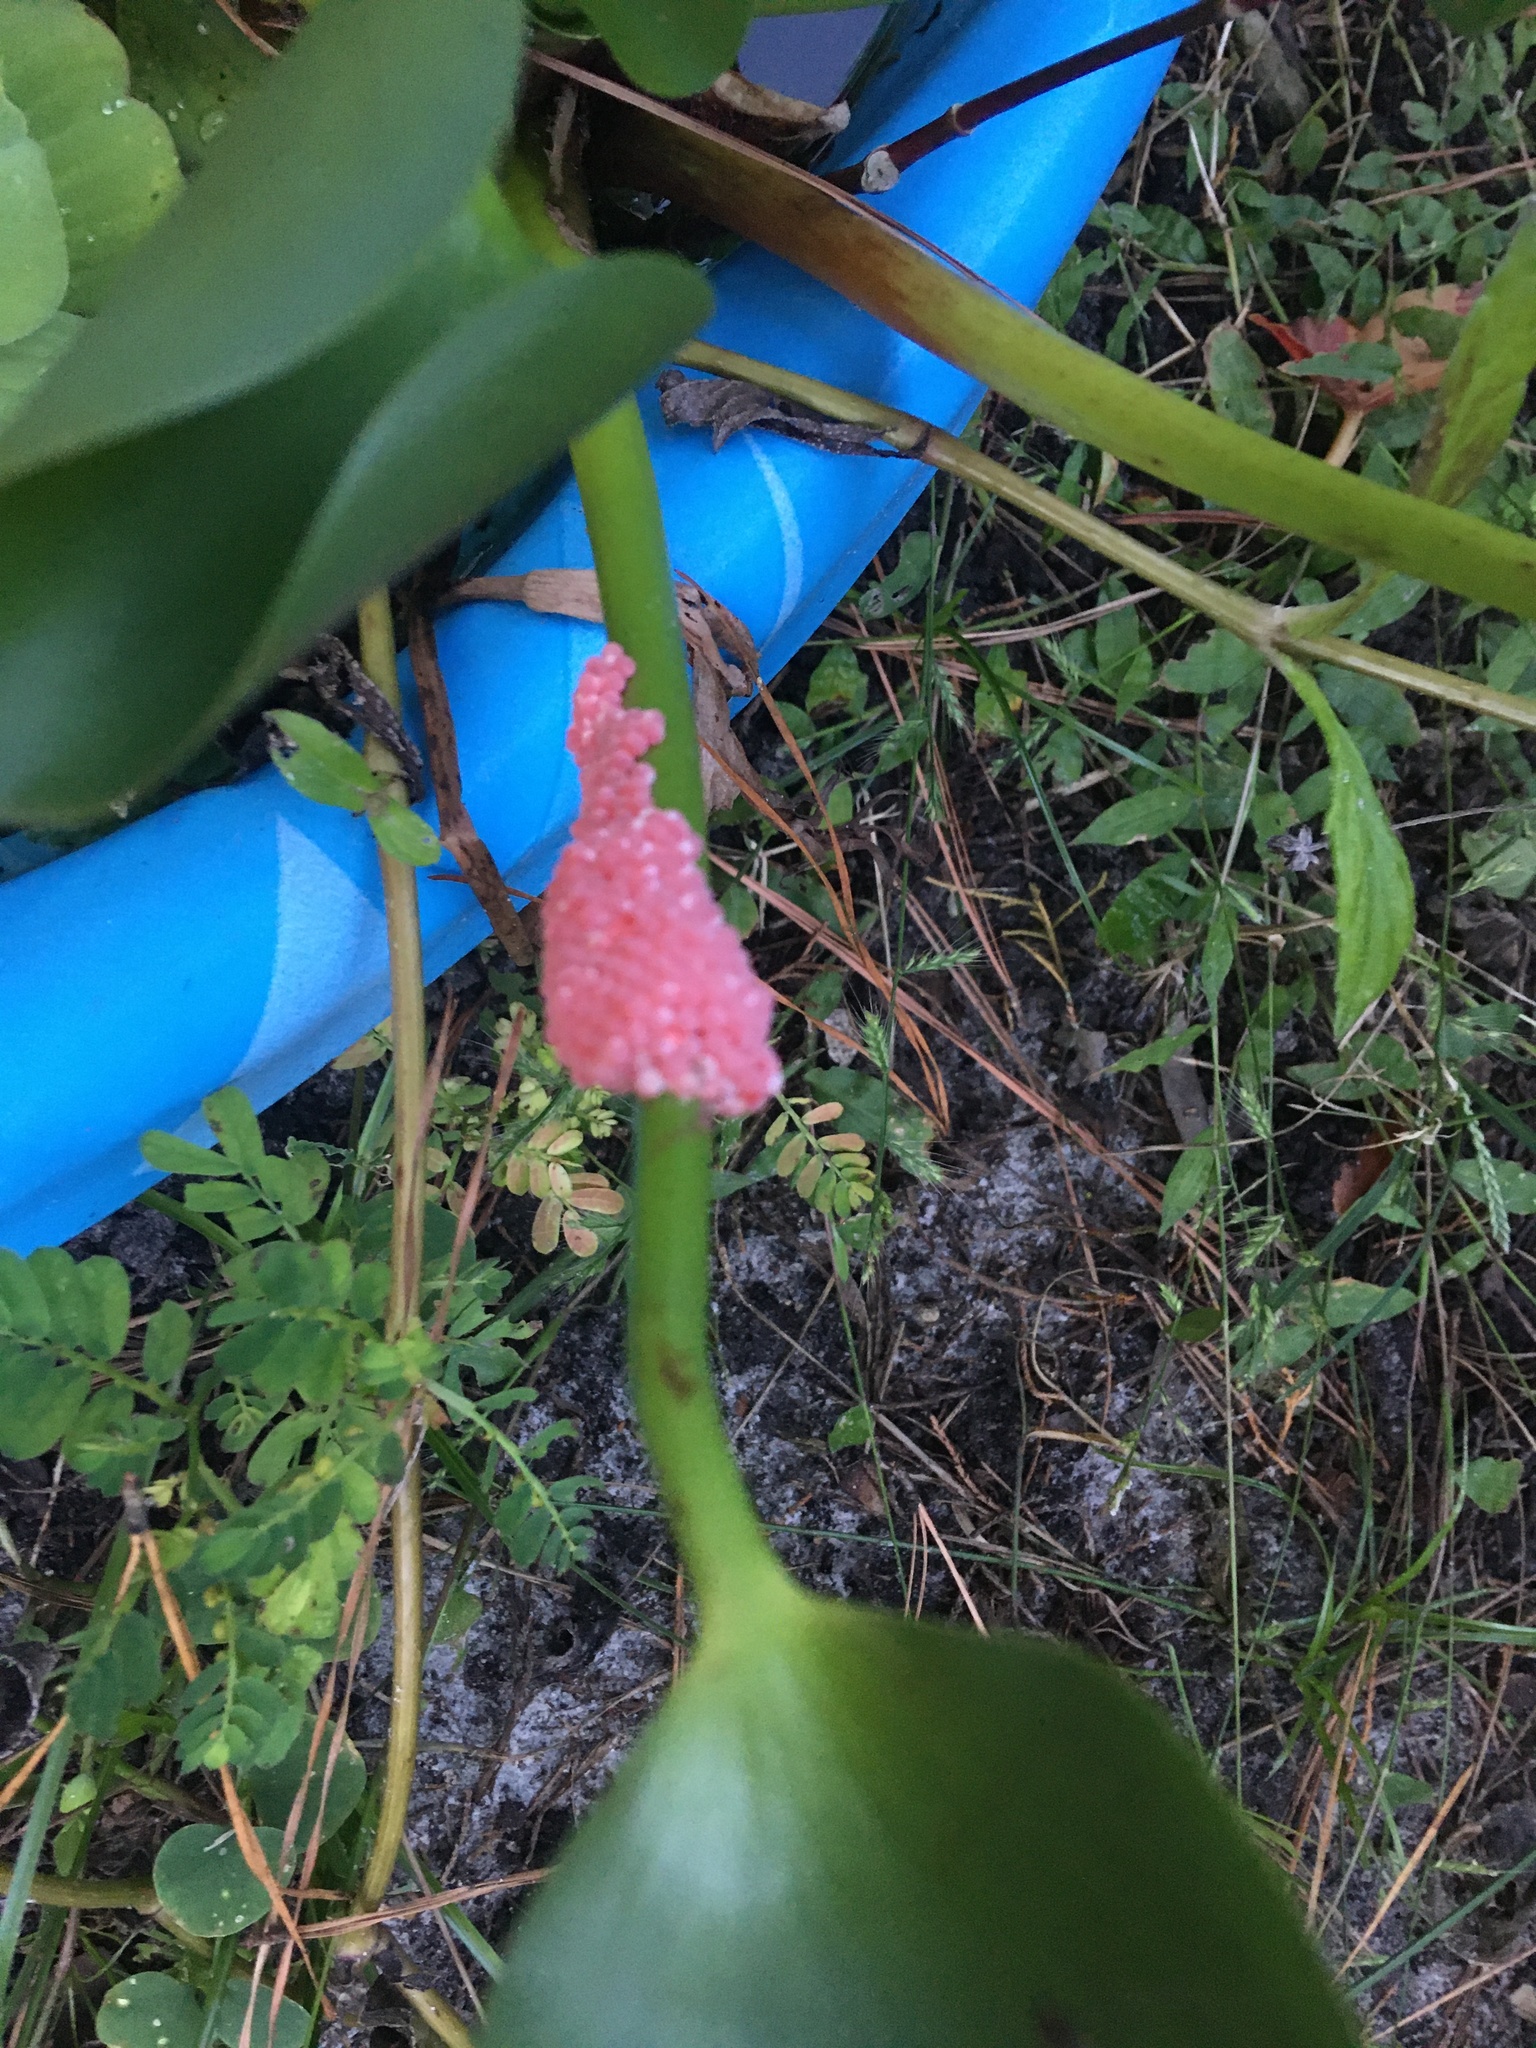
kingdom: Animalia
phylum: Mollusca
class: Gastropoda
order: Architaenioglossa
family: Ampullariidae
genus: Pomacea
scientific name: Pomacea maculata
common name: Giant applesnail
